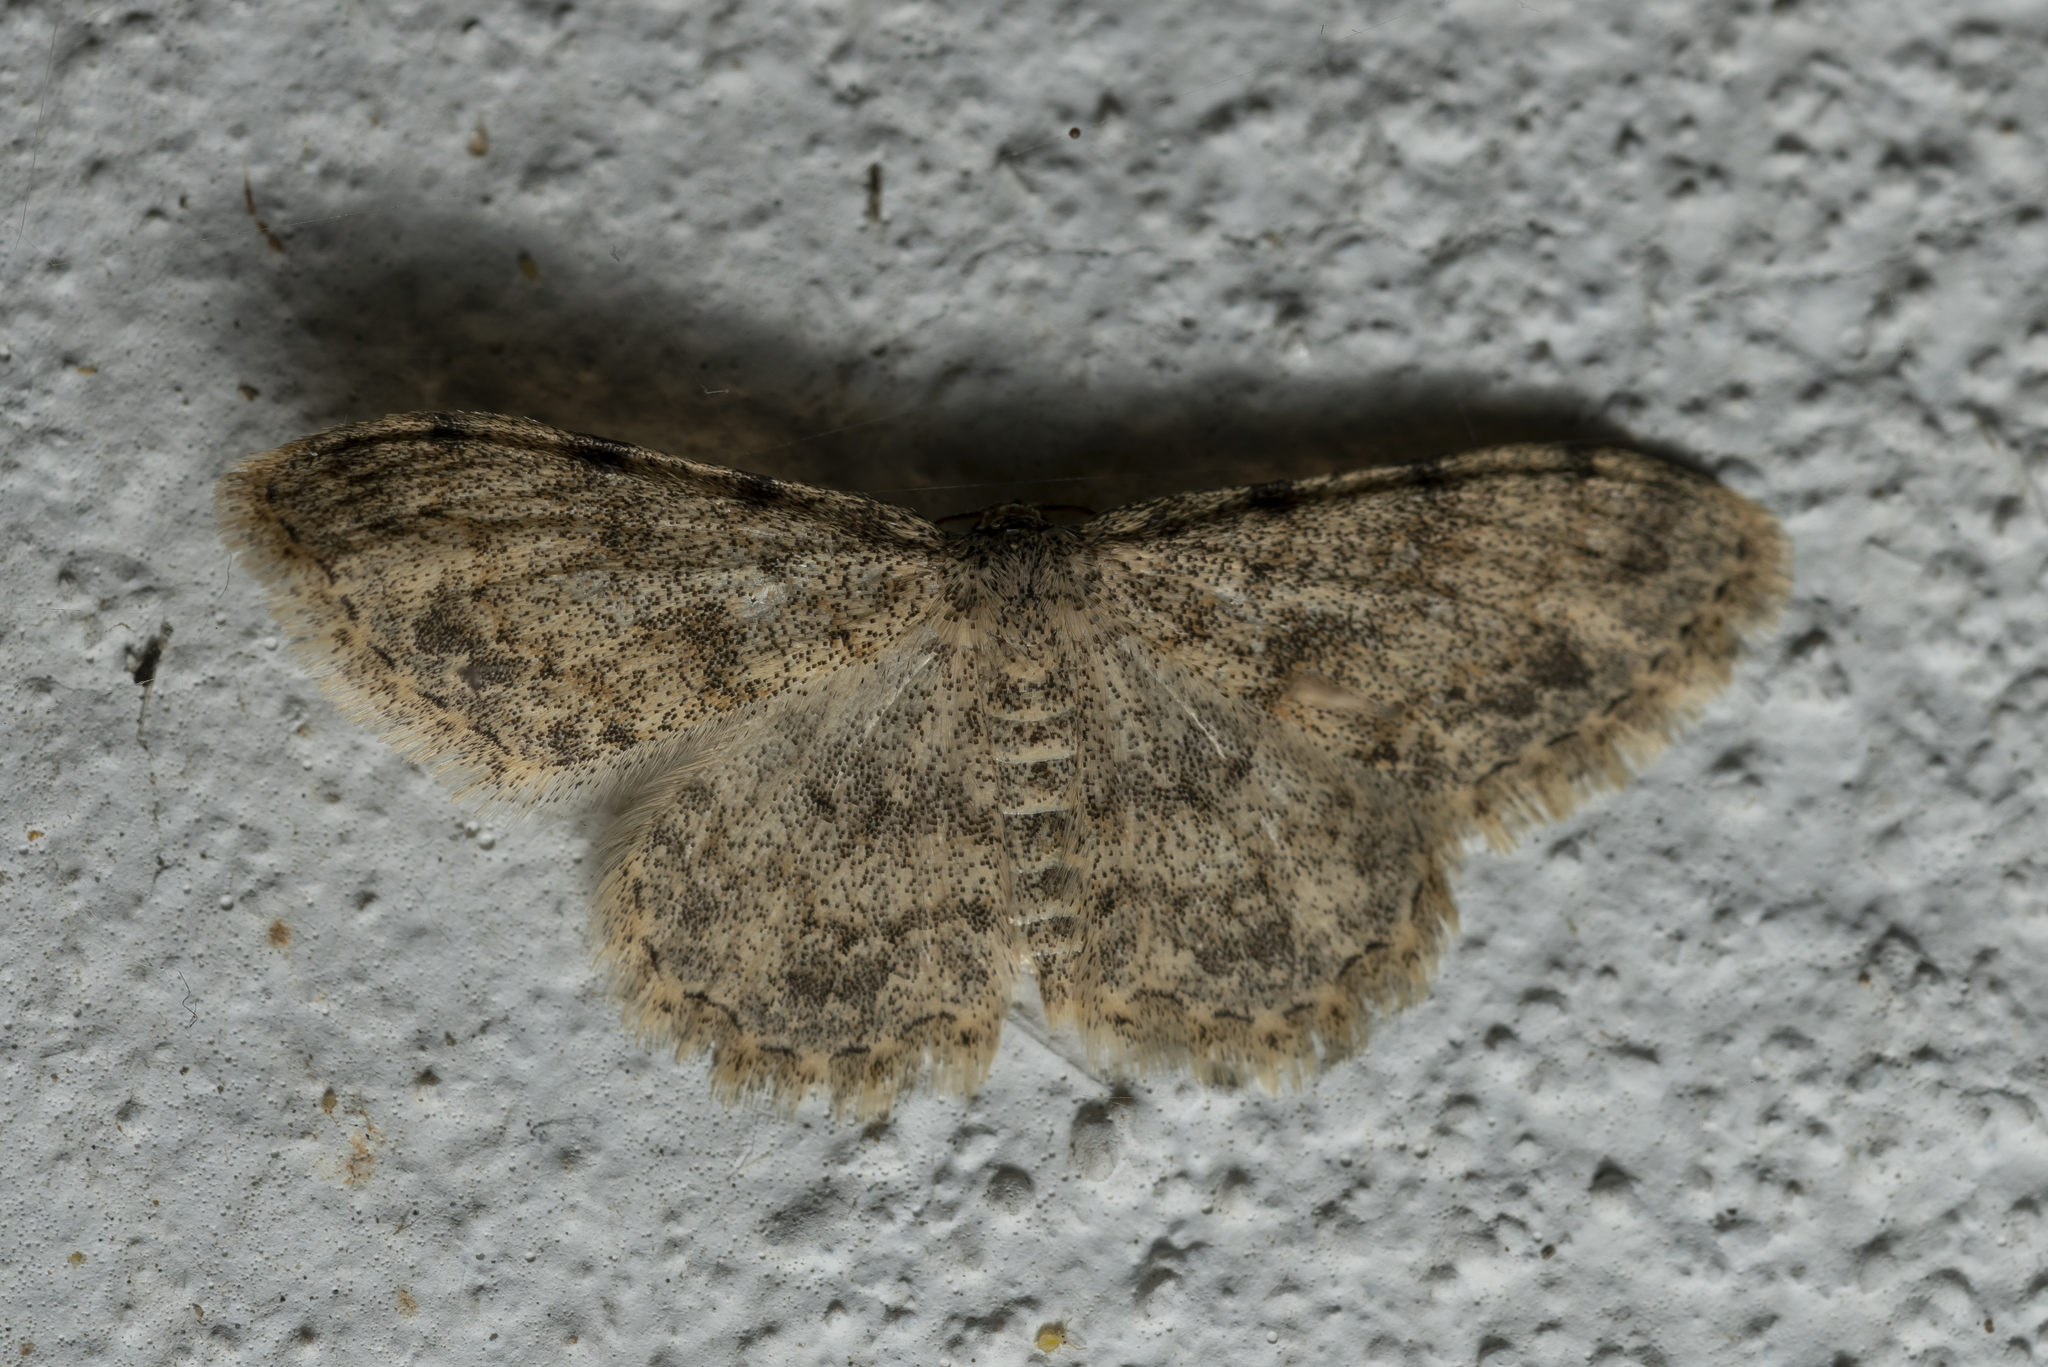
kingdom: Animalia
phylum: Arthropoda
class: Insecta
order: Lepidoptera
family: Geometridae
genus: Scopula
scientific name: Scopula luridata
